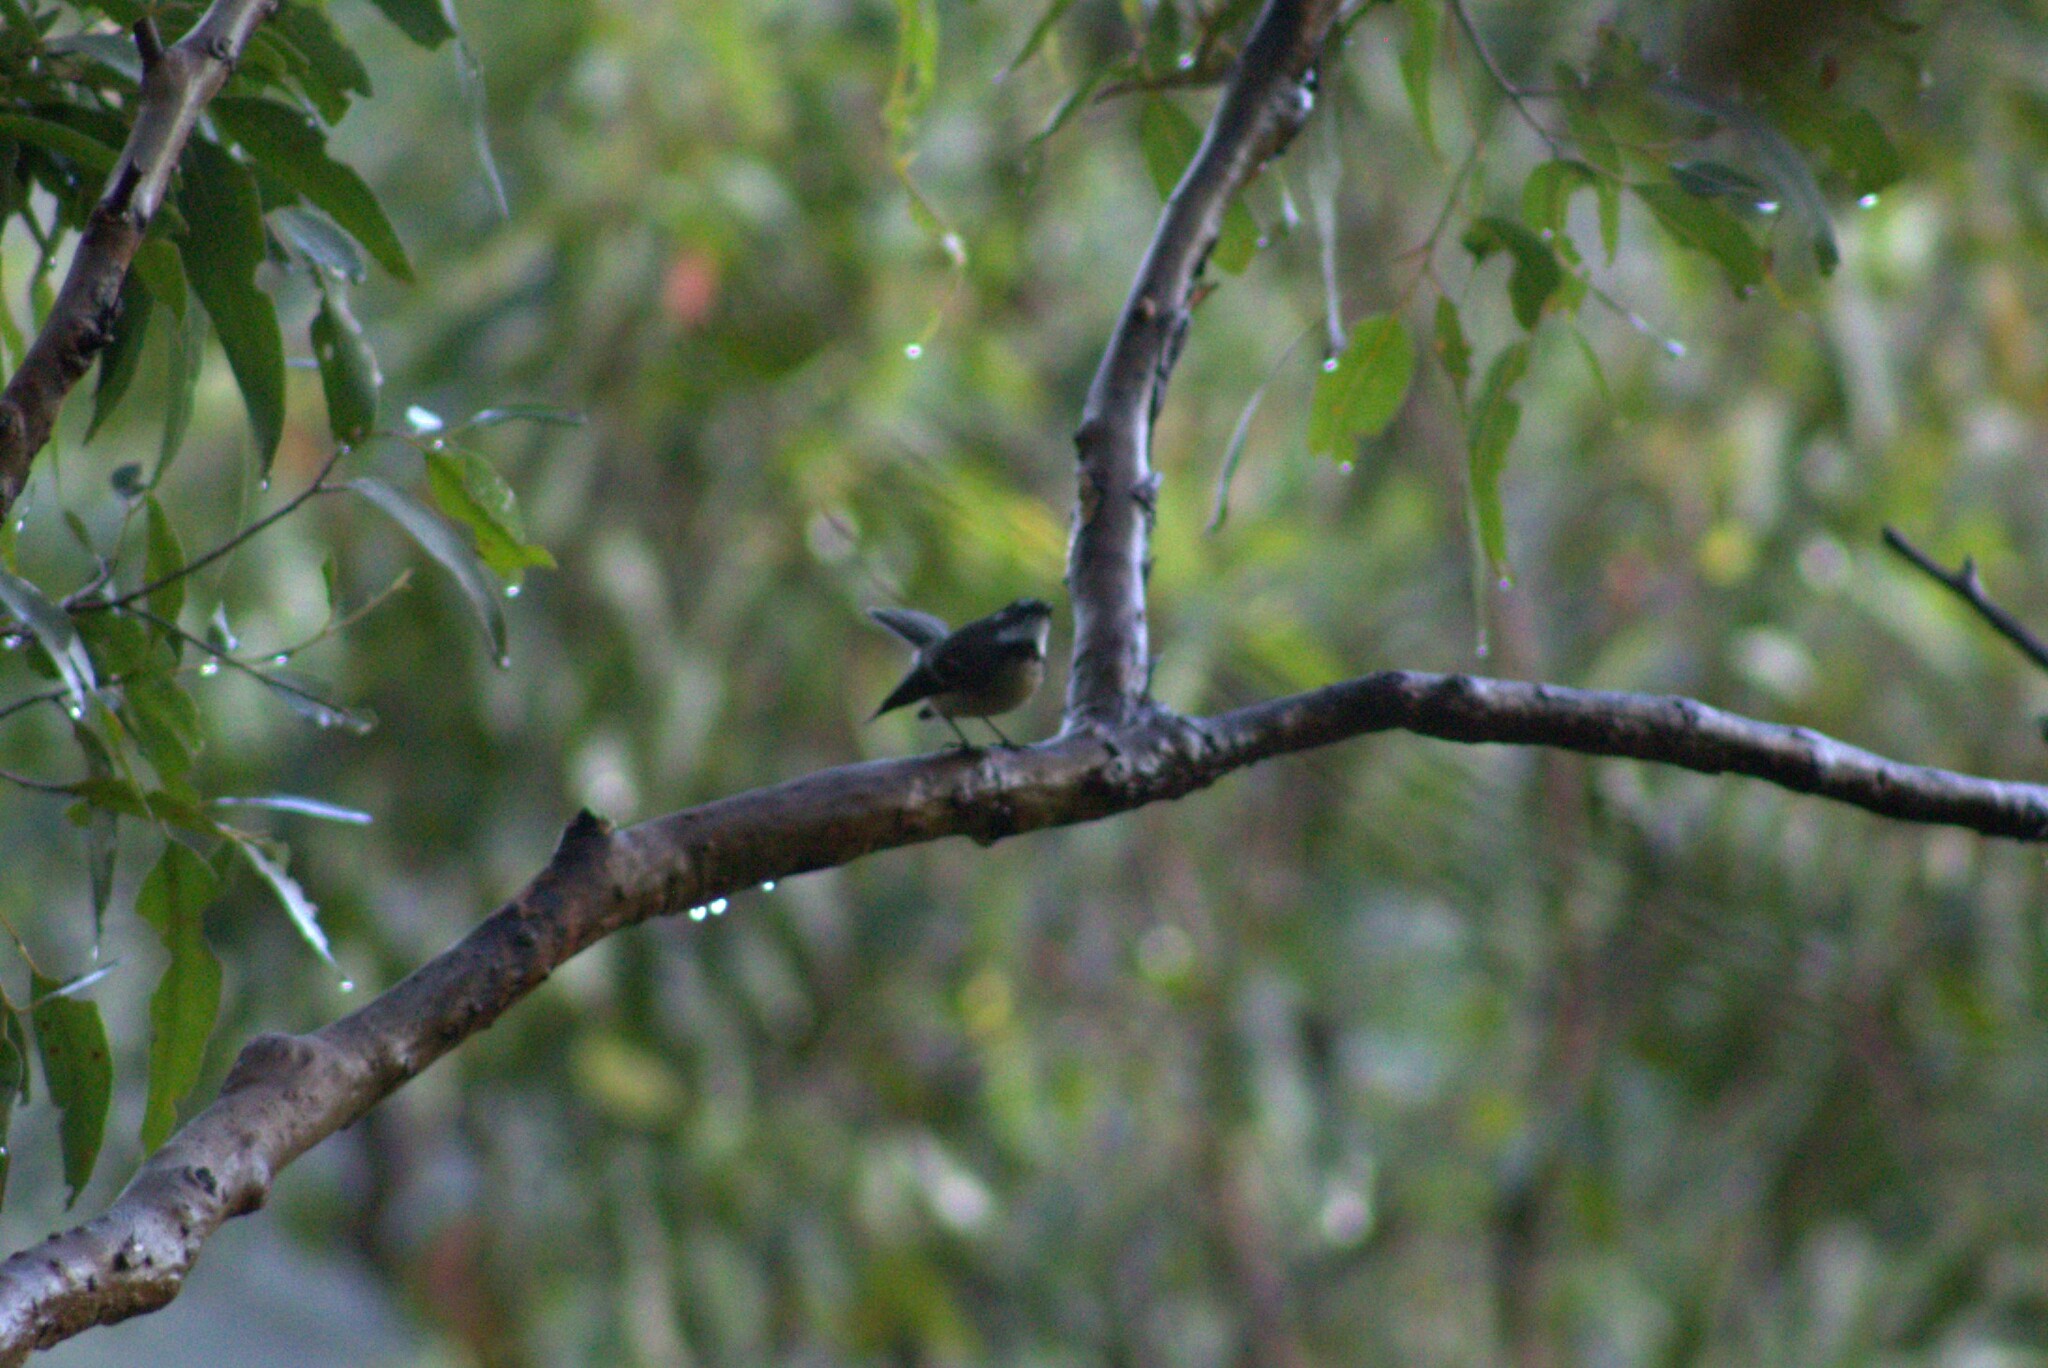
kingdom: Animalia
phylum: Chordata
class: Aves
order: Passeriformes
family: Rhipiduridae
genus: Rhipidura
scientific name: Rhipidura albiscapa
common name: Grey fantail
